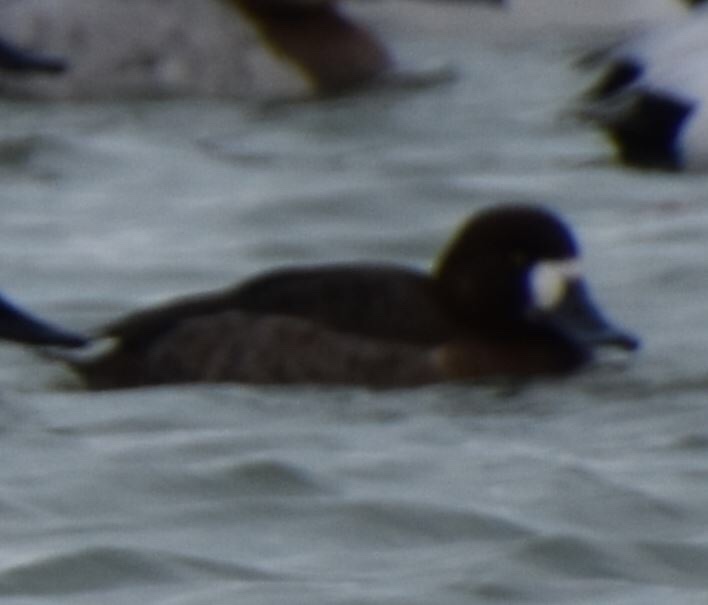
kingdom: Animalia
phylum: Chordata
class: Aves
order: Anseriformes
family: Anatidae
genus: Aythya
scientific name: Aythya marila
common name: Greater scaup
